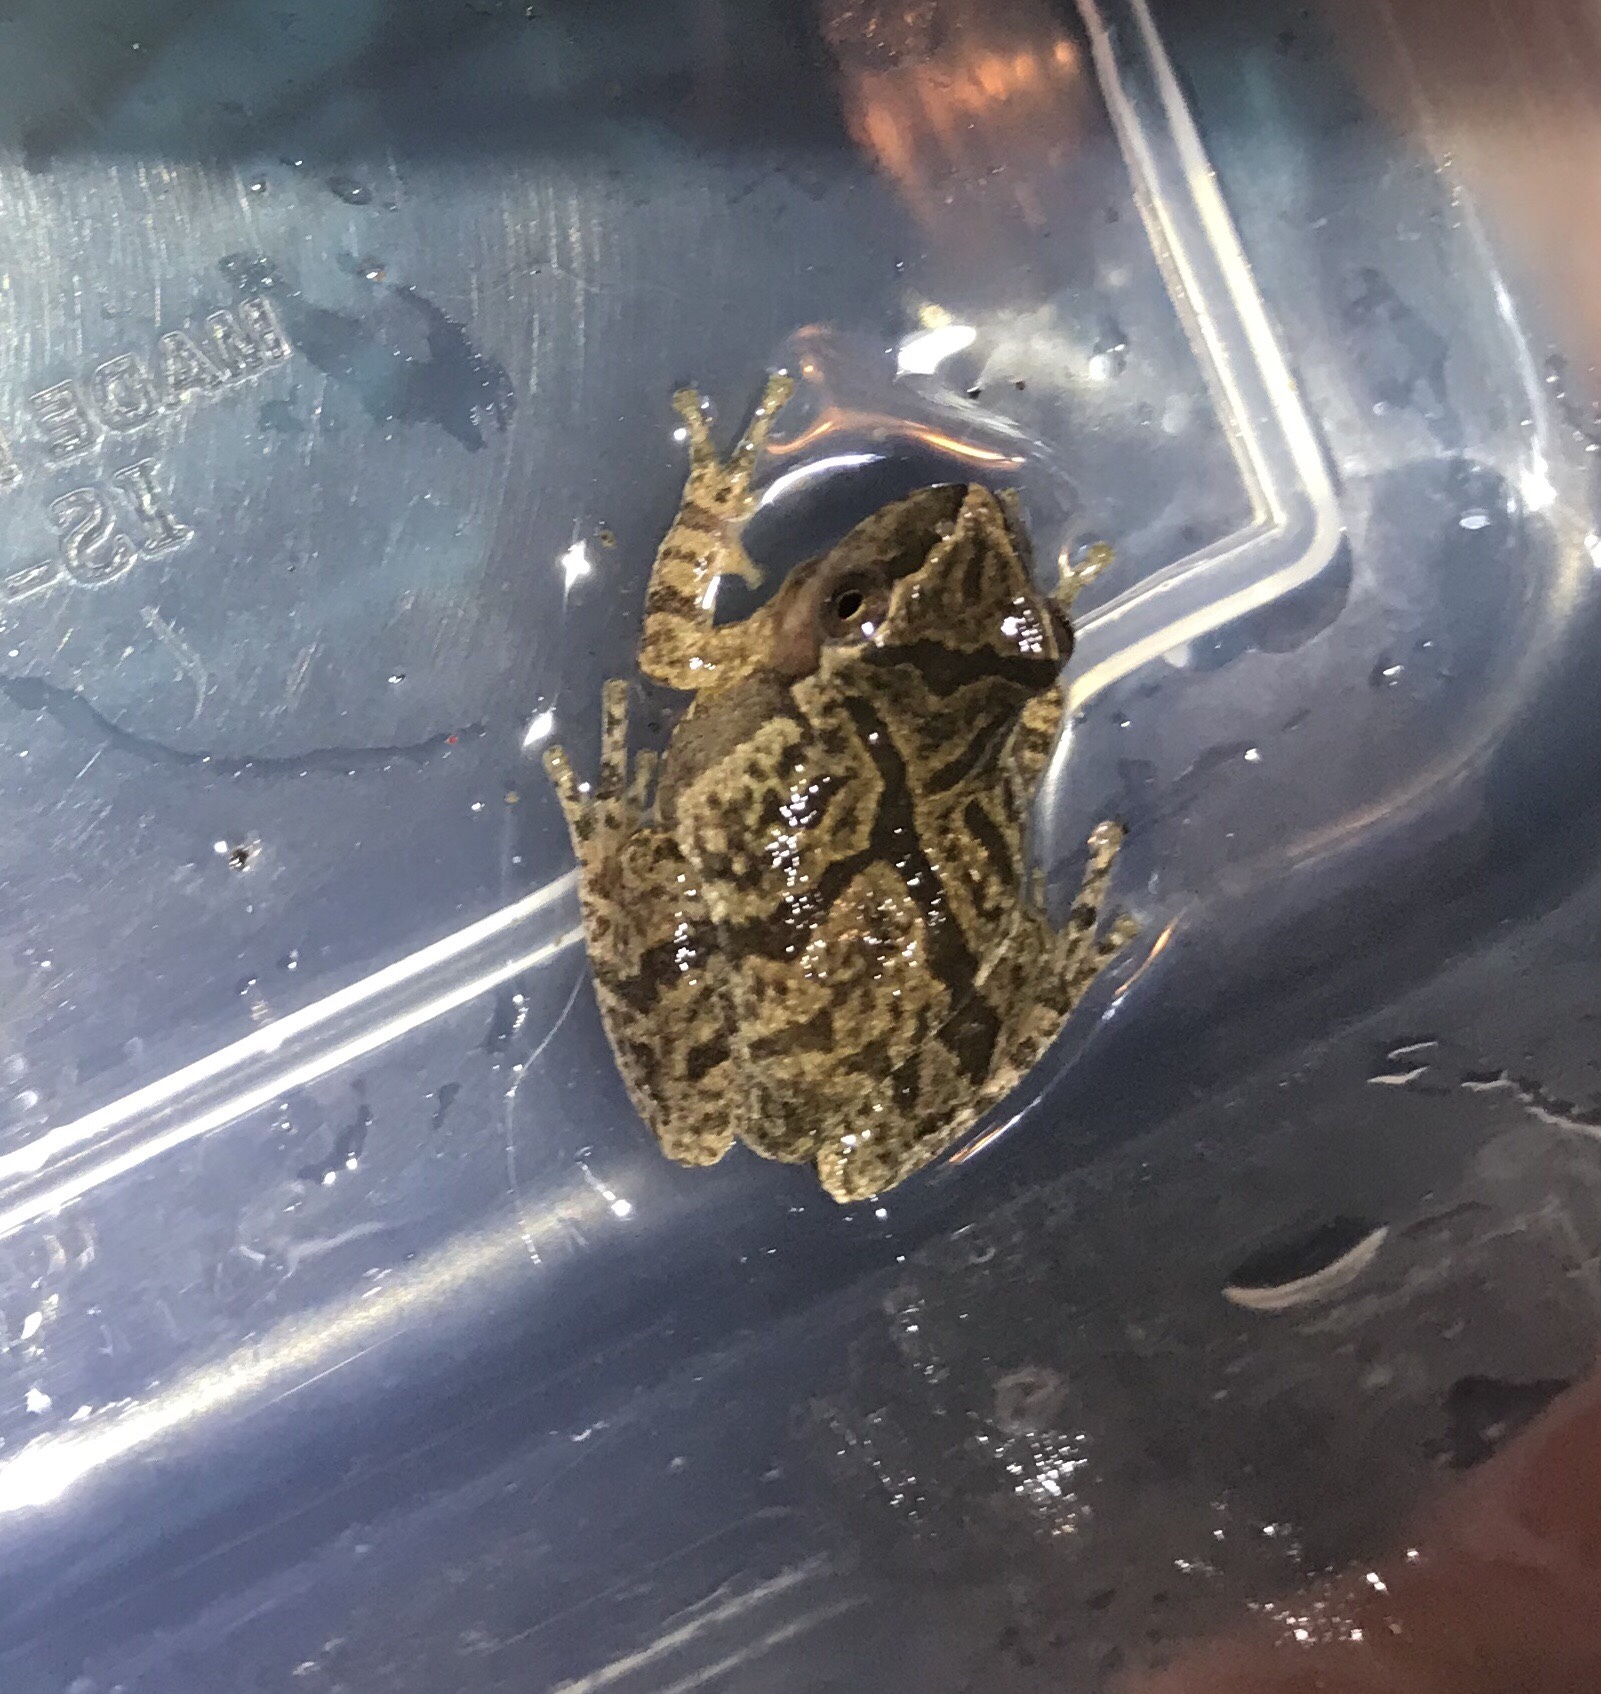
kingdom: Animalia
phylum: Chordata
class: Amphibia
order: Anura
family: Hylidae
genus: Pseudacris
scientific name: Pseudacris crucifer
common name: Spring peeper
